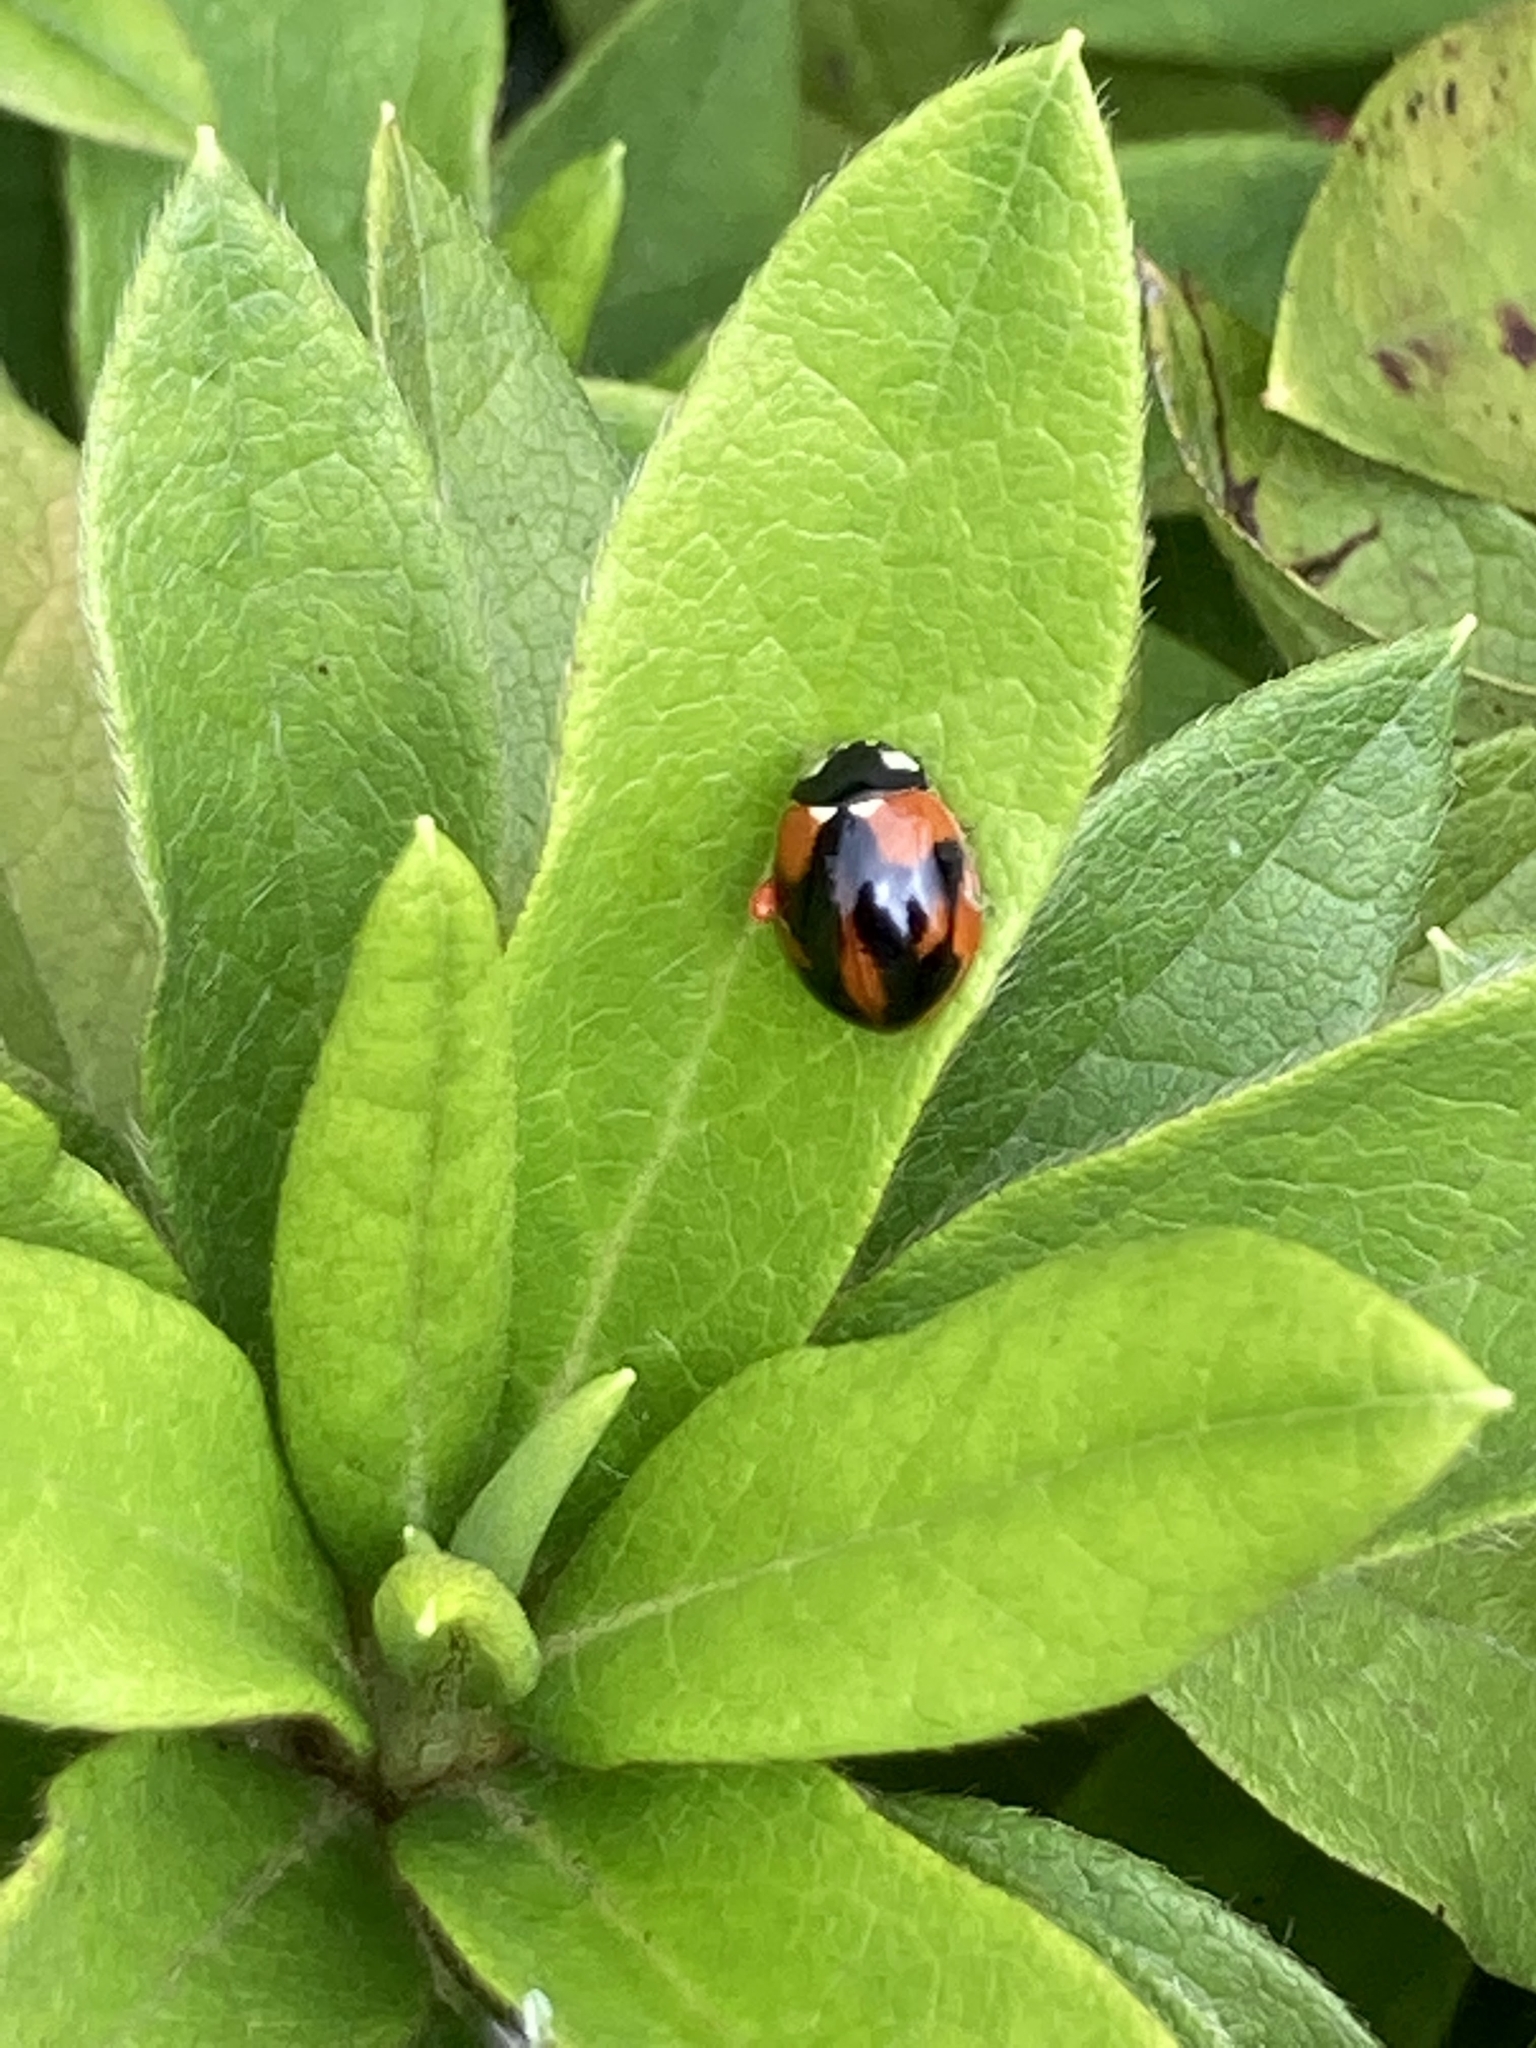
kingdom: Animalia
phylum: Arthropoda
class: Insecta
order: Coleoptera
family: Coccinellidae
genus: Coccinella
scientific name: Coccinella septempunctata
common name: Sevenspotted lady beetle
